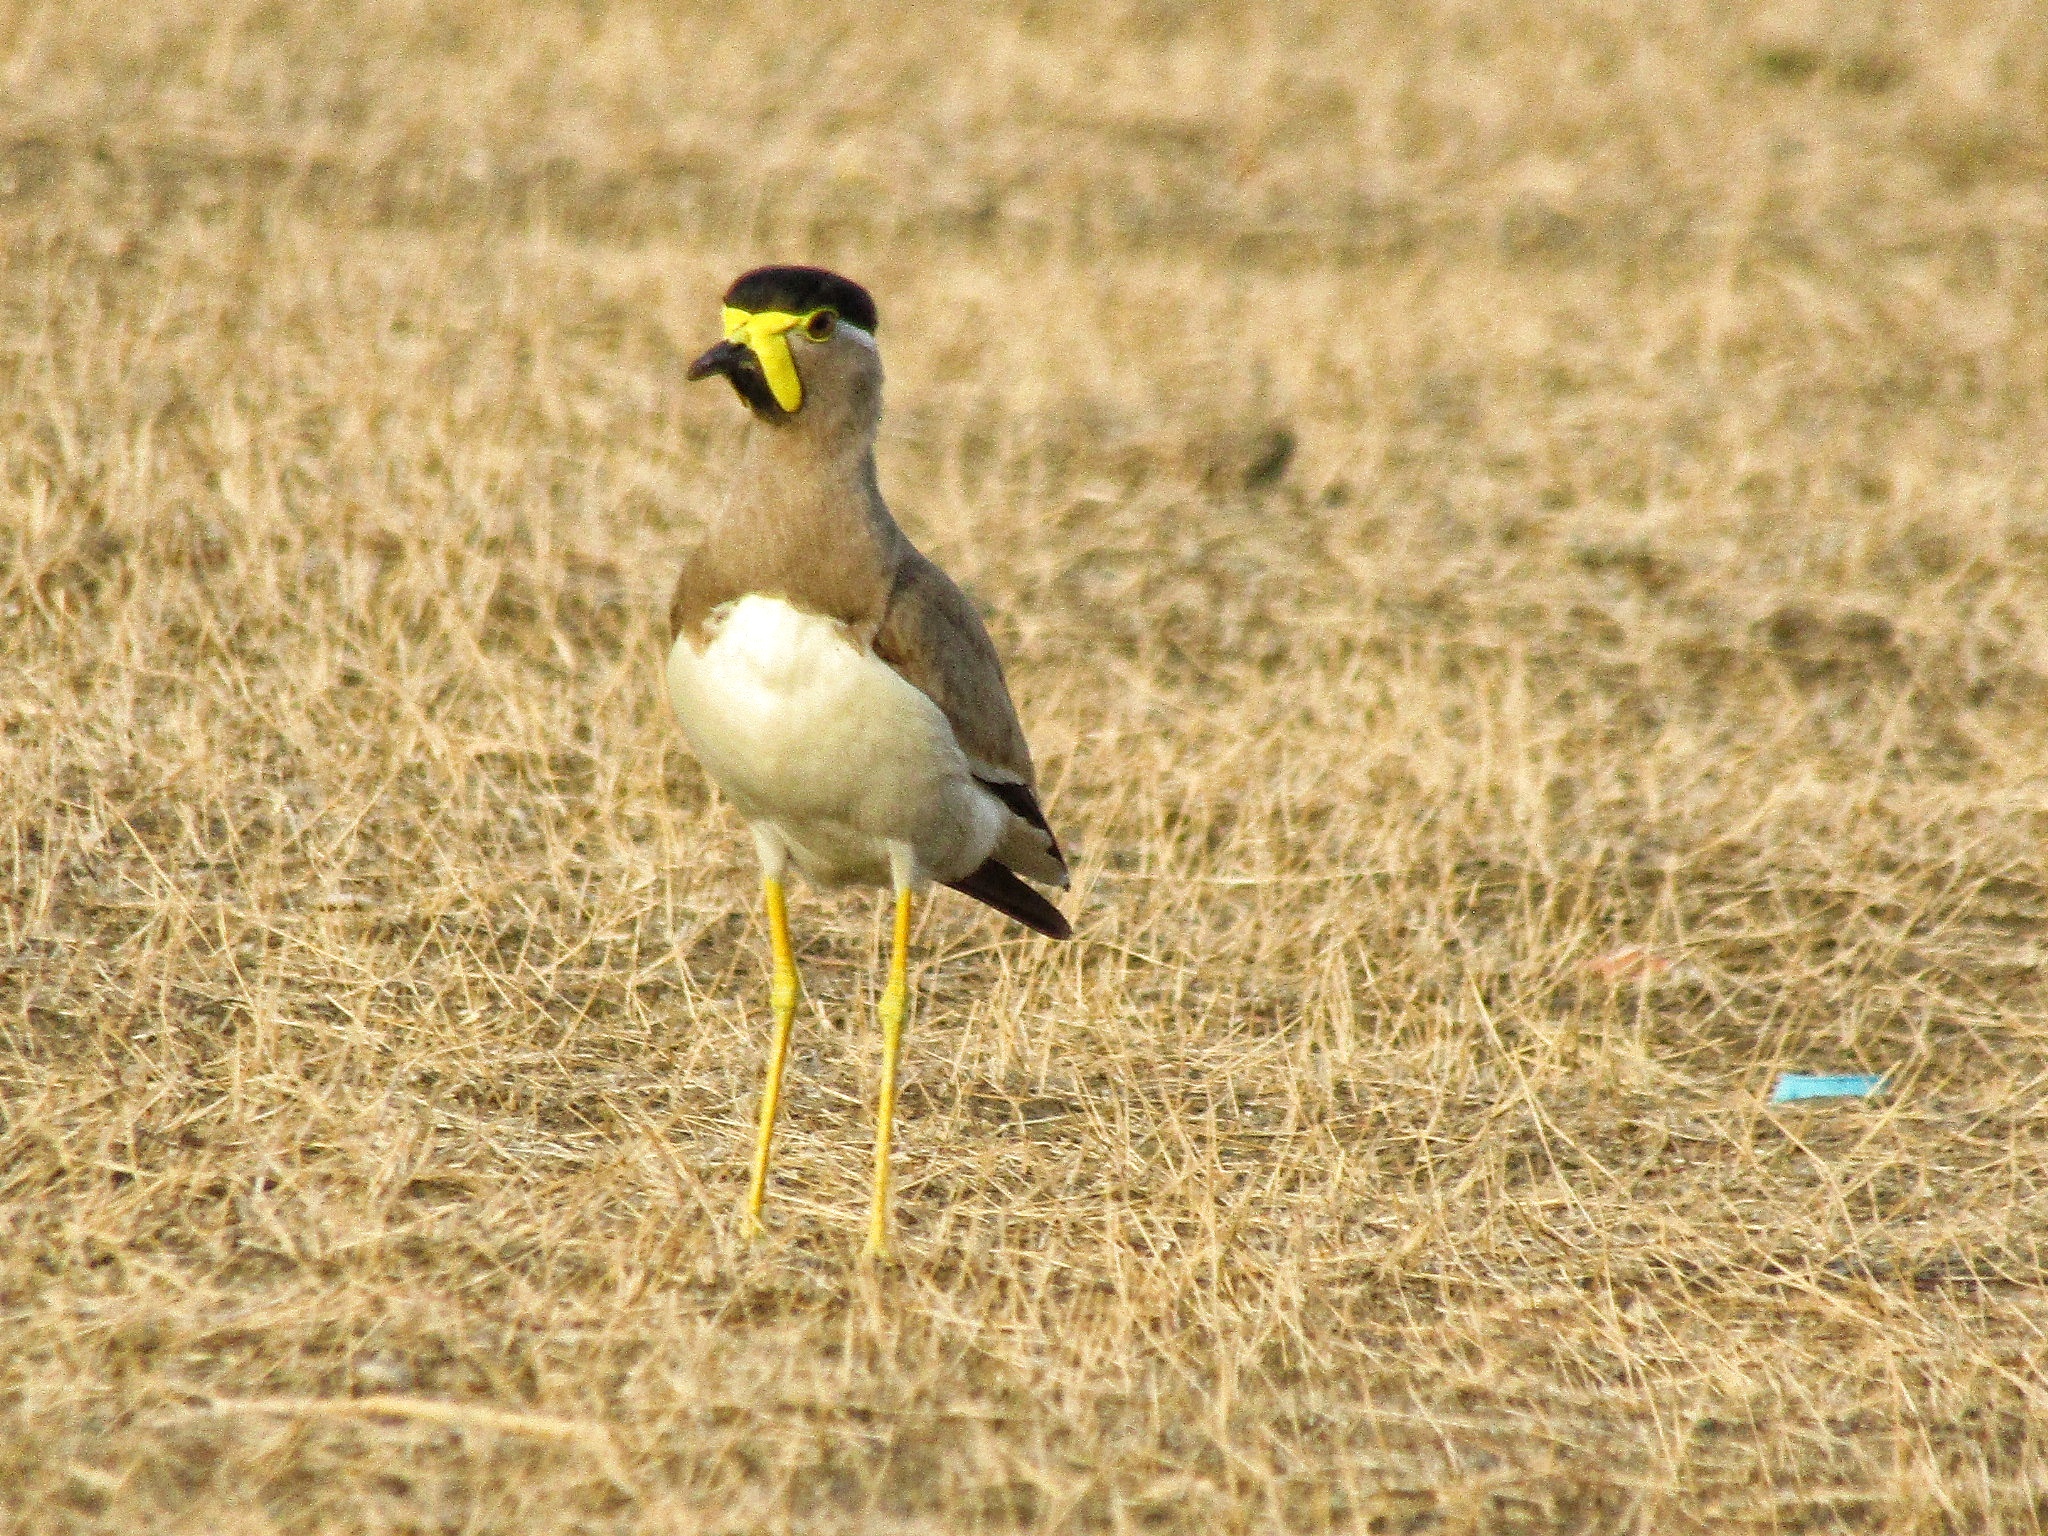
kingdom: Animalia
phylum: Chordata
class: Aves
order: Charadriiformes
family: Charadriidae
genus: Vanellus
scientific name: Vanellus malabaricus
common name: Yellow-wattled lapwing
